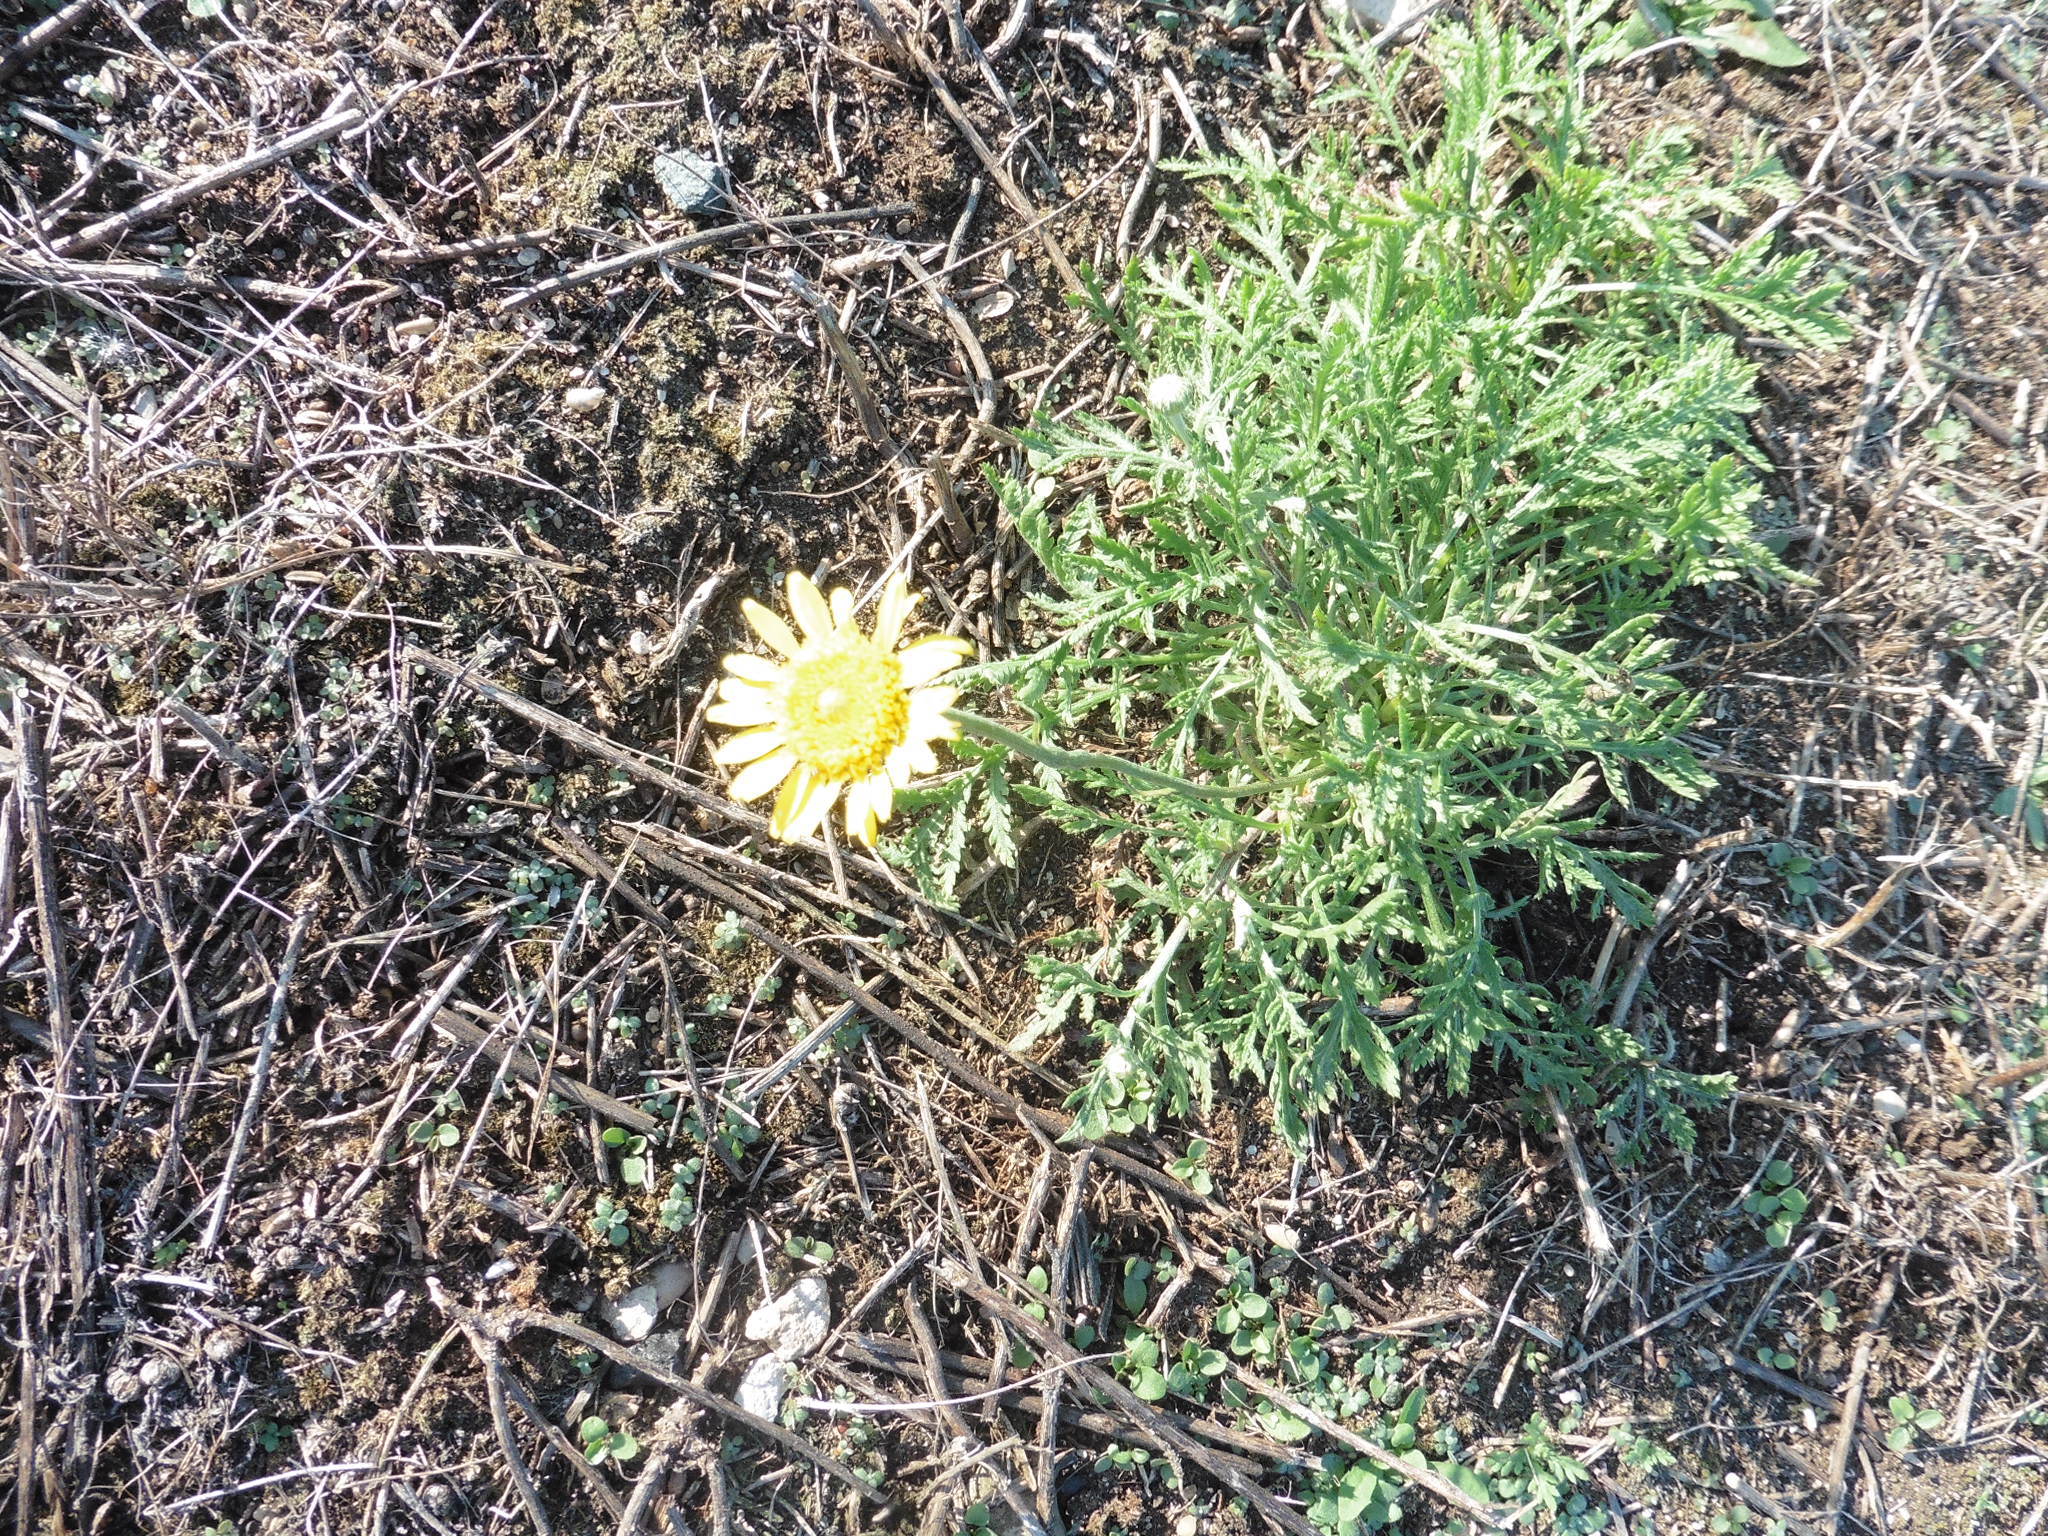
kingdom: Plantae
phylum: Tracheophyta
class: Magnoliopsida
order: Asterales
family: Asteraceae
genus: Cota
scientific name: Cota tinctoria
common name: Golden chamomile
